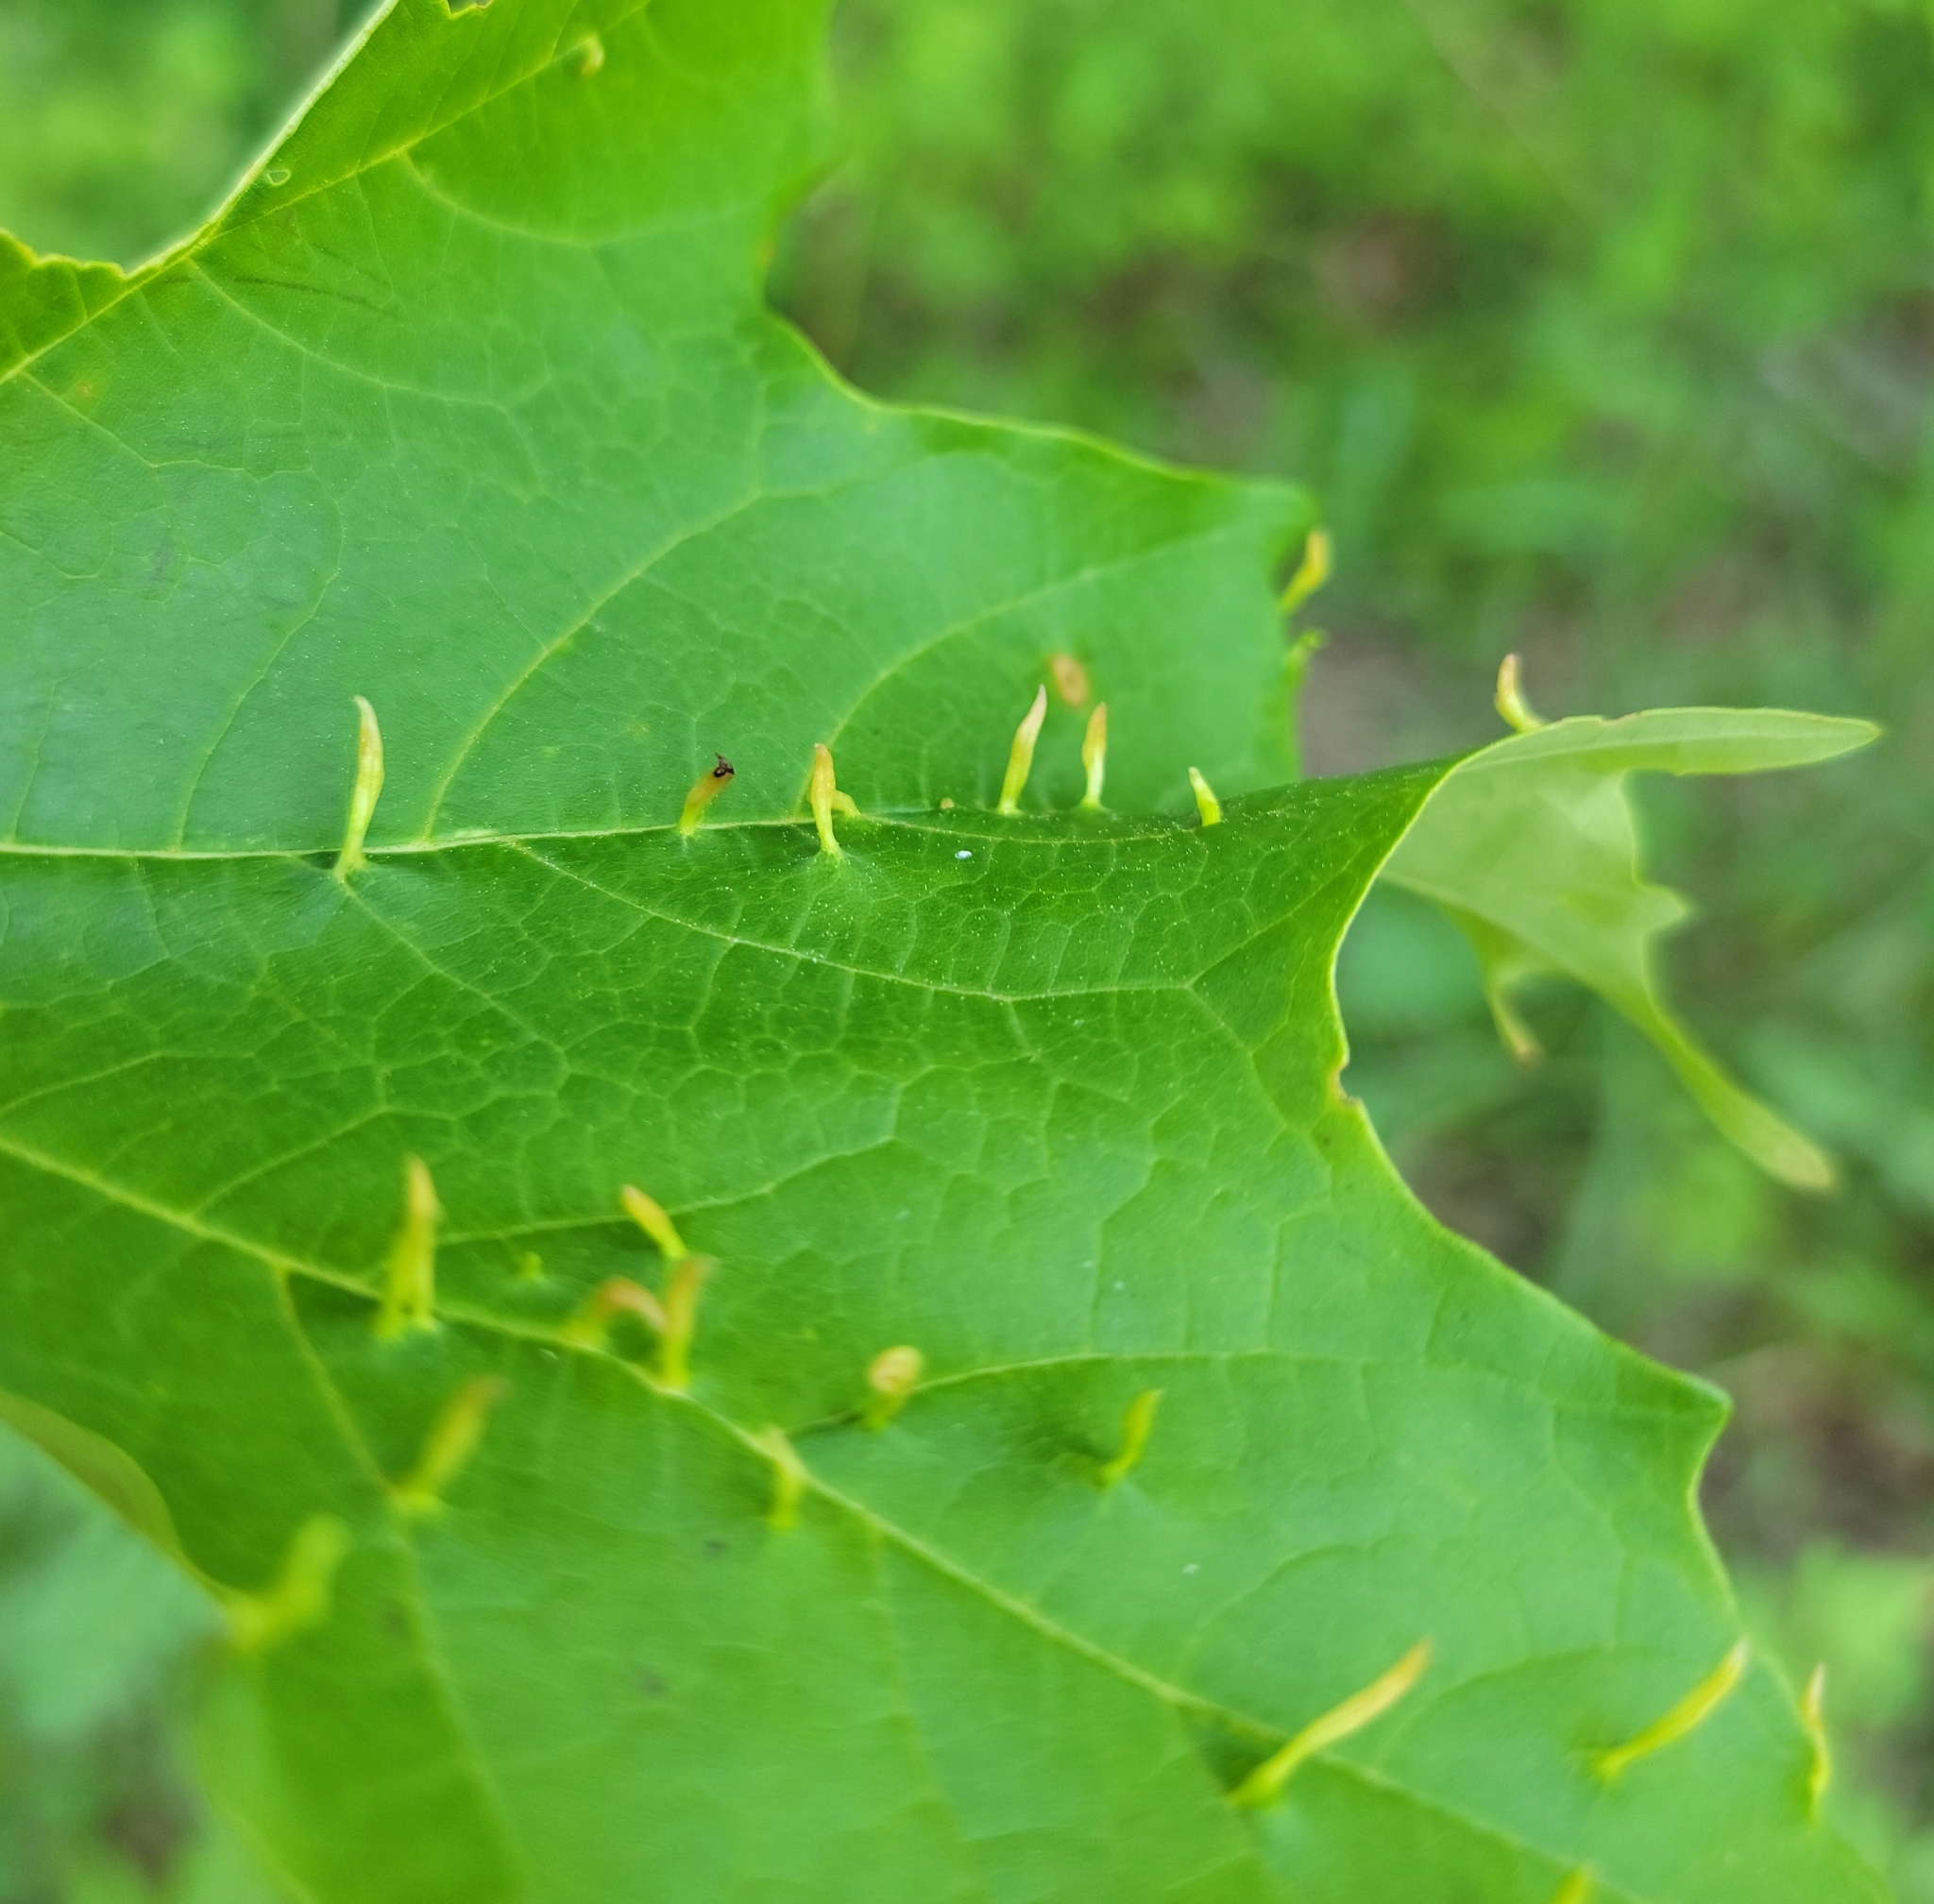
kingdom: Animalia
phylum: Arthropoda
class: Arachnida
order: Trombidiformes
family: Eriophyidae
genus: Vasates
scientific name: Vasates aceriscrumena
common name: Maple spindle gall mite
